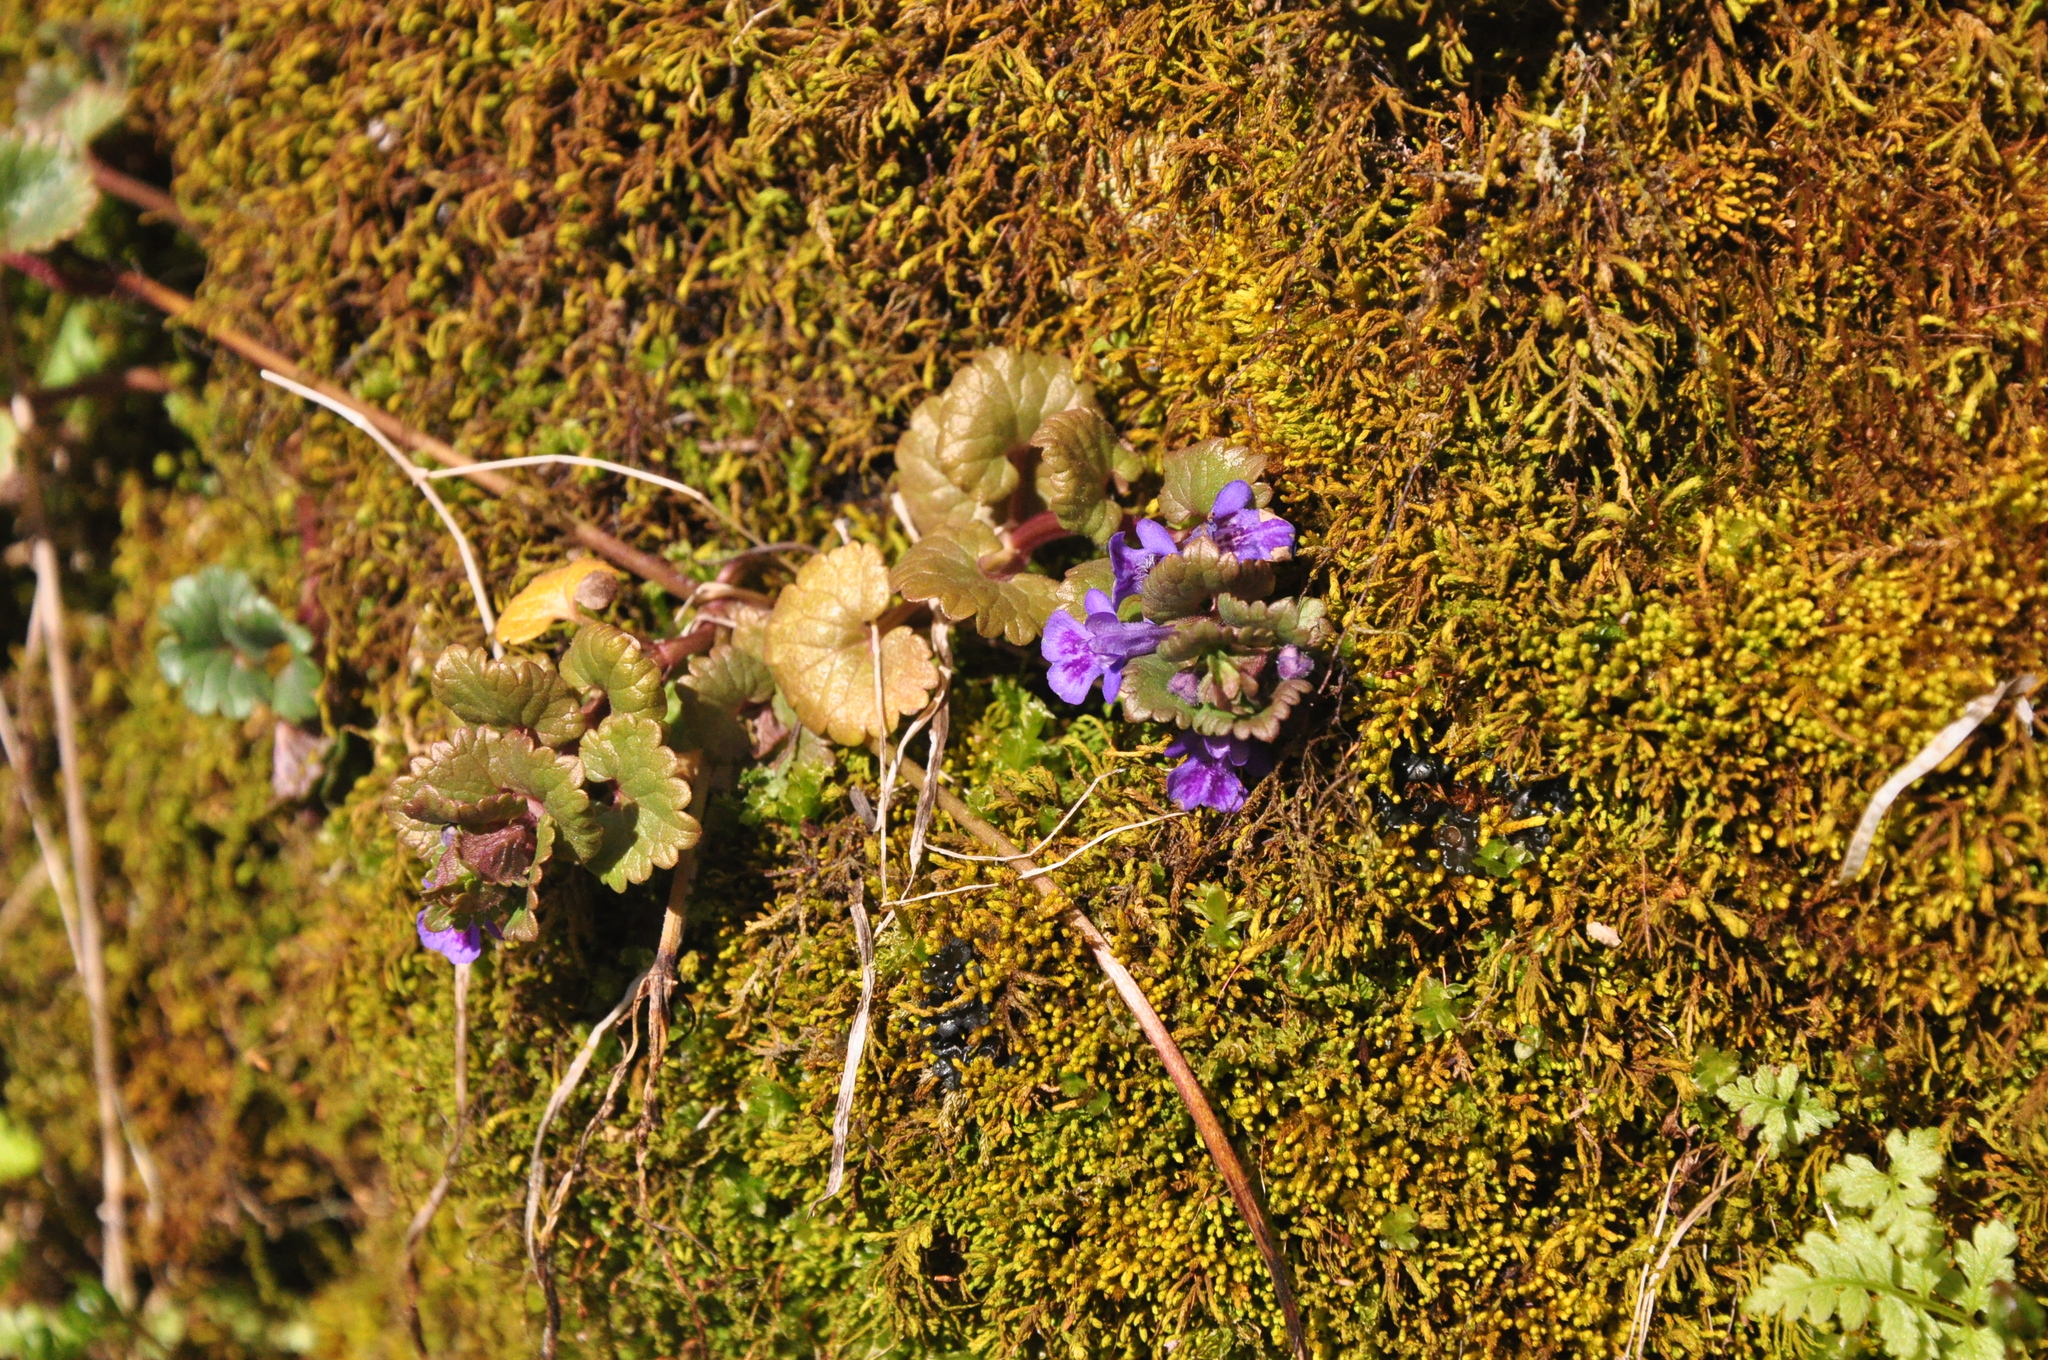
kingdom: Plantae
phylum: Tracheophyta
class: Magnoliopsida
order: Lamiales
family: Lamiaceae
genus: Glechoma
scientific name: Glechoma hederacea
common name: Ground ivy
